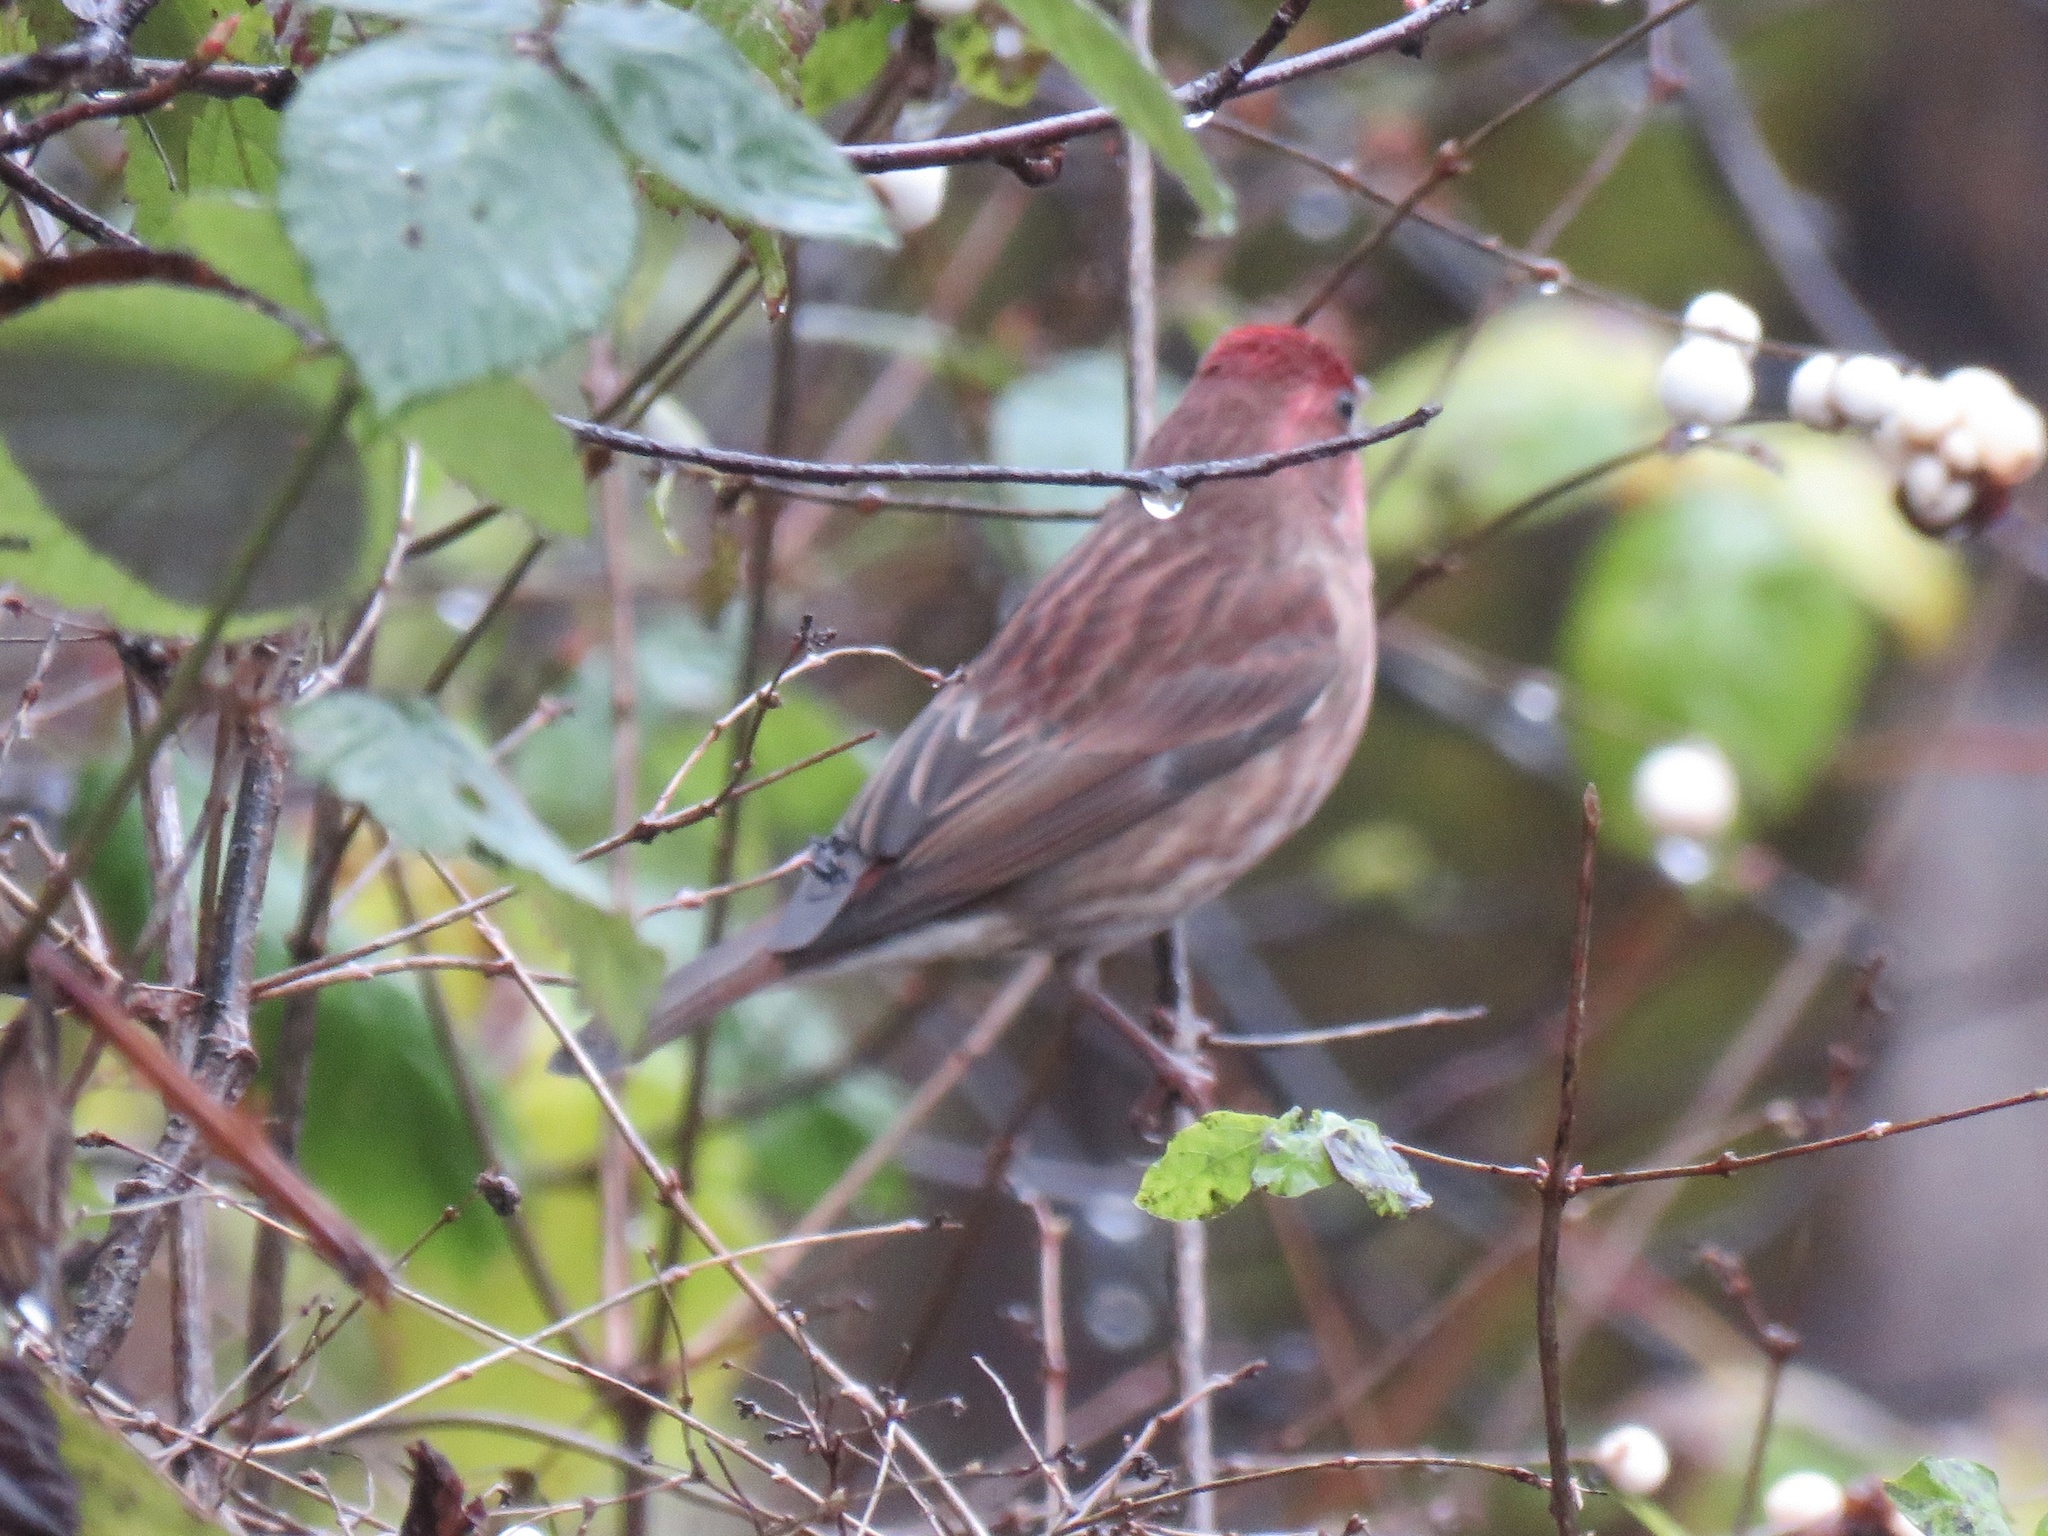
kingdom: Animalia
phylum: Chordata
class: Aves
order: Passeriformes
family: Fringillidae
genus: Haemorhous
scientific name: Haemorhous purpureus
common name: Purple finch
